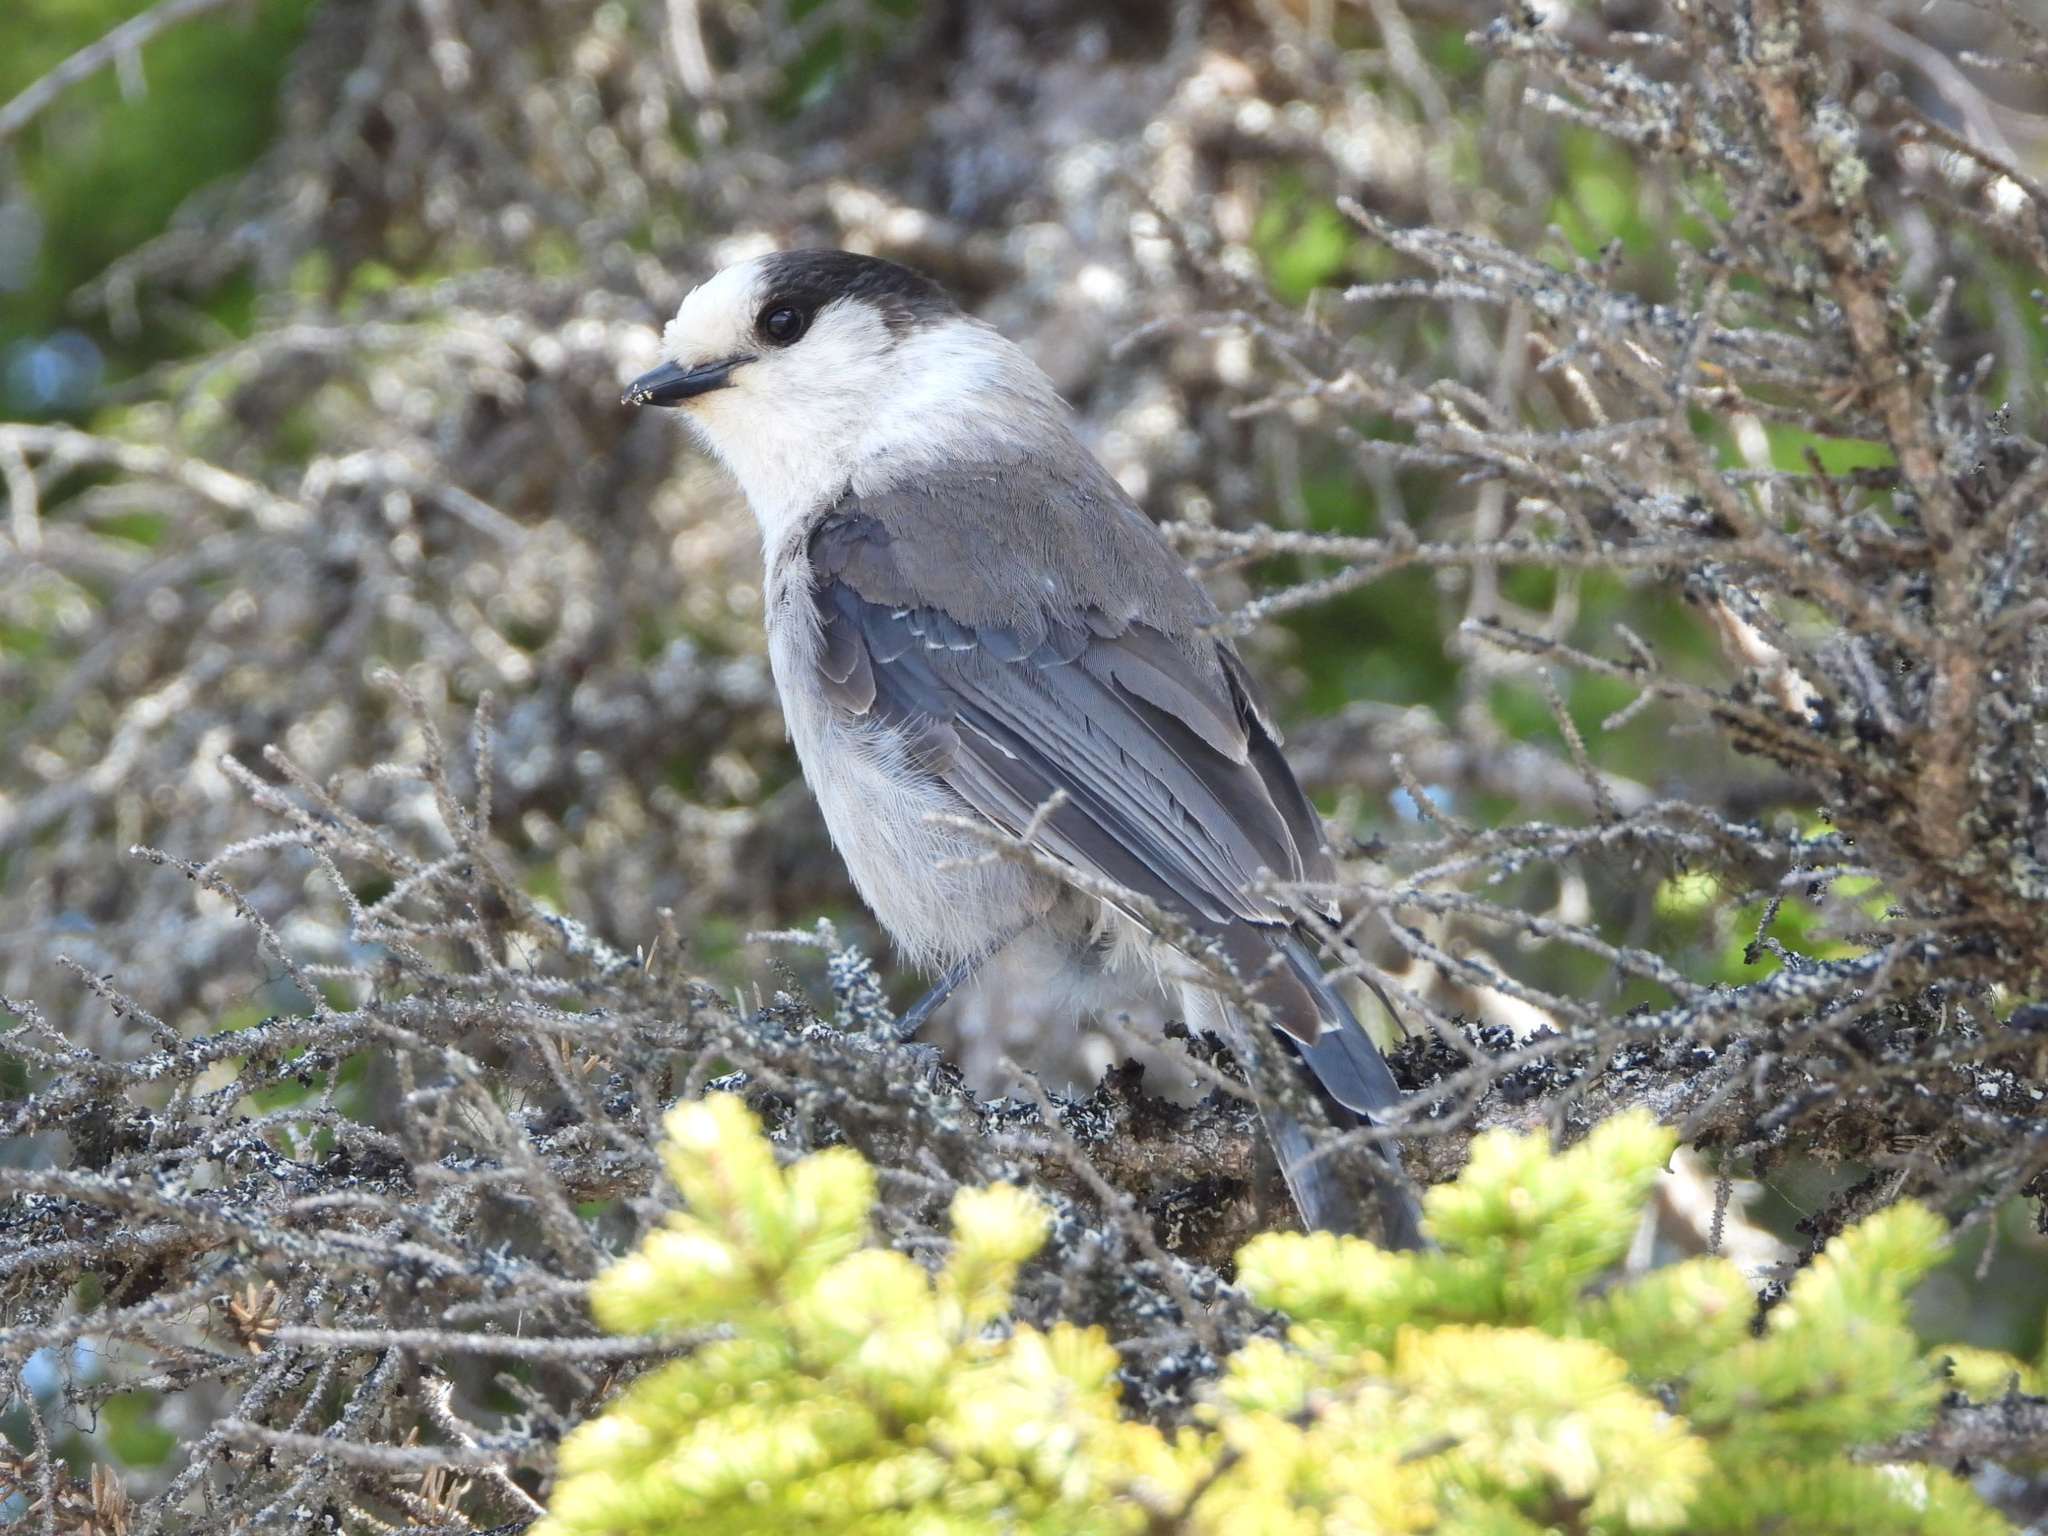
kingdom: Animalia
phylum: Chordata
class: Aves
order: Passeriformes
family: Corvidae
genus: Perisoreus
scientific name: Perisoreus canadensis
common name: Gray jay
